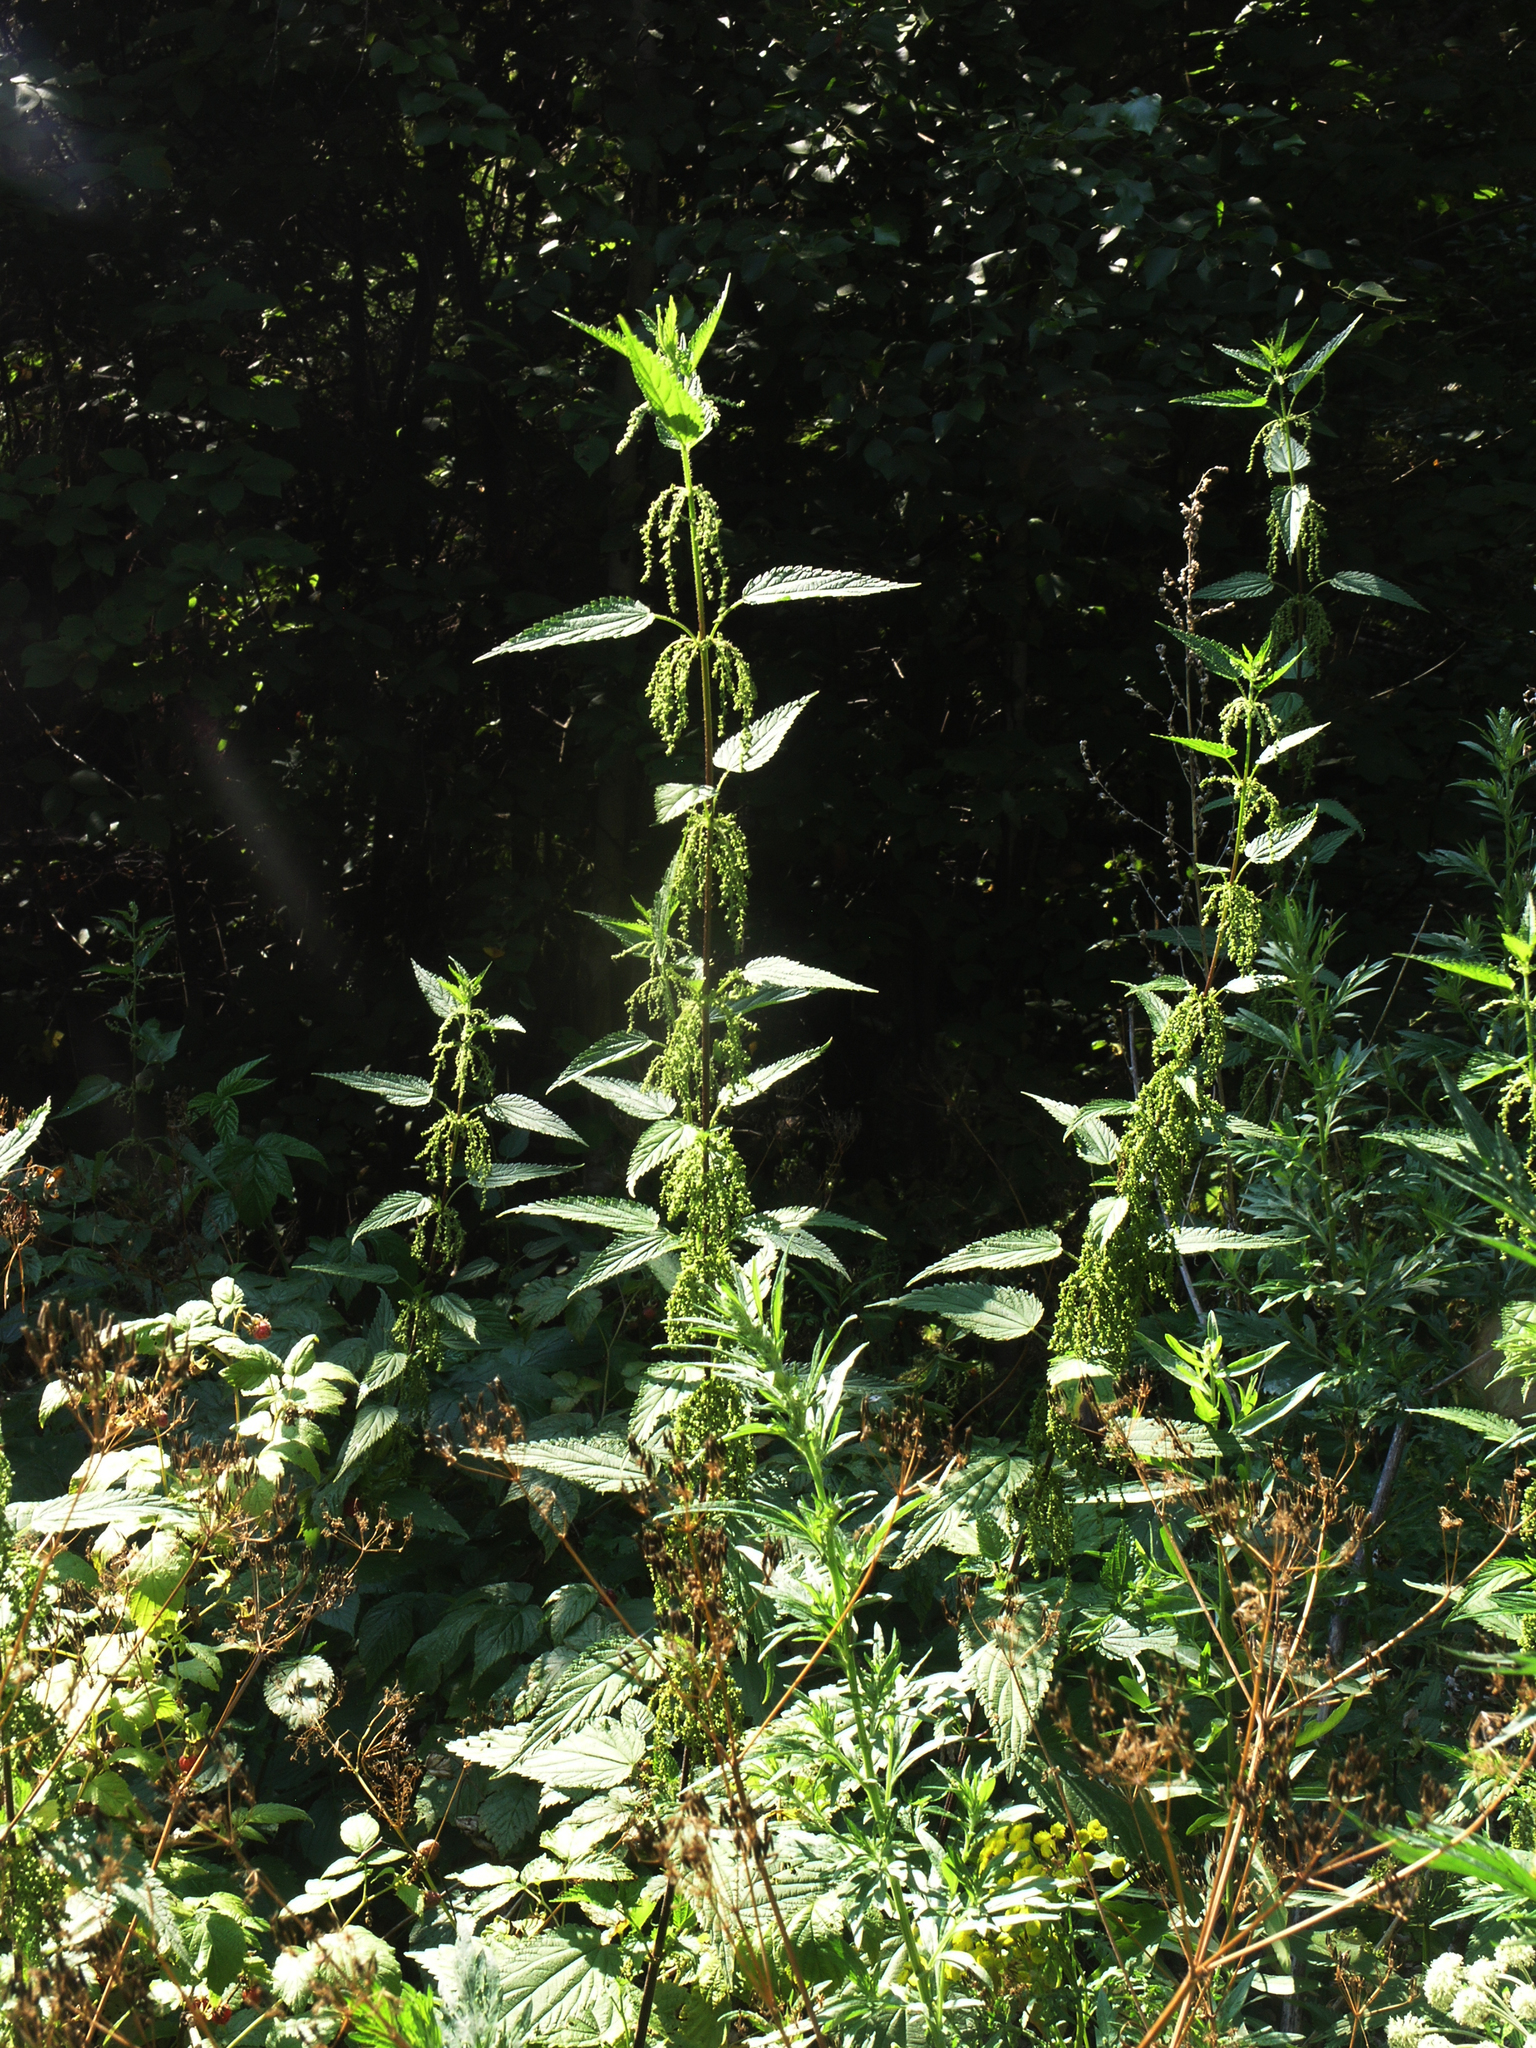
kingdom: Plantae
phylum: Tracheophyta
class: Magnoliopsida
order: Rosales
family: Urticaceae
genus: Urtica
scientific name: Urtica dioica
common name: Common nettle
